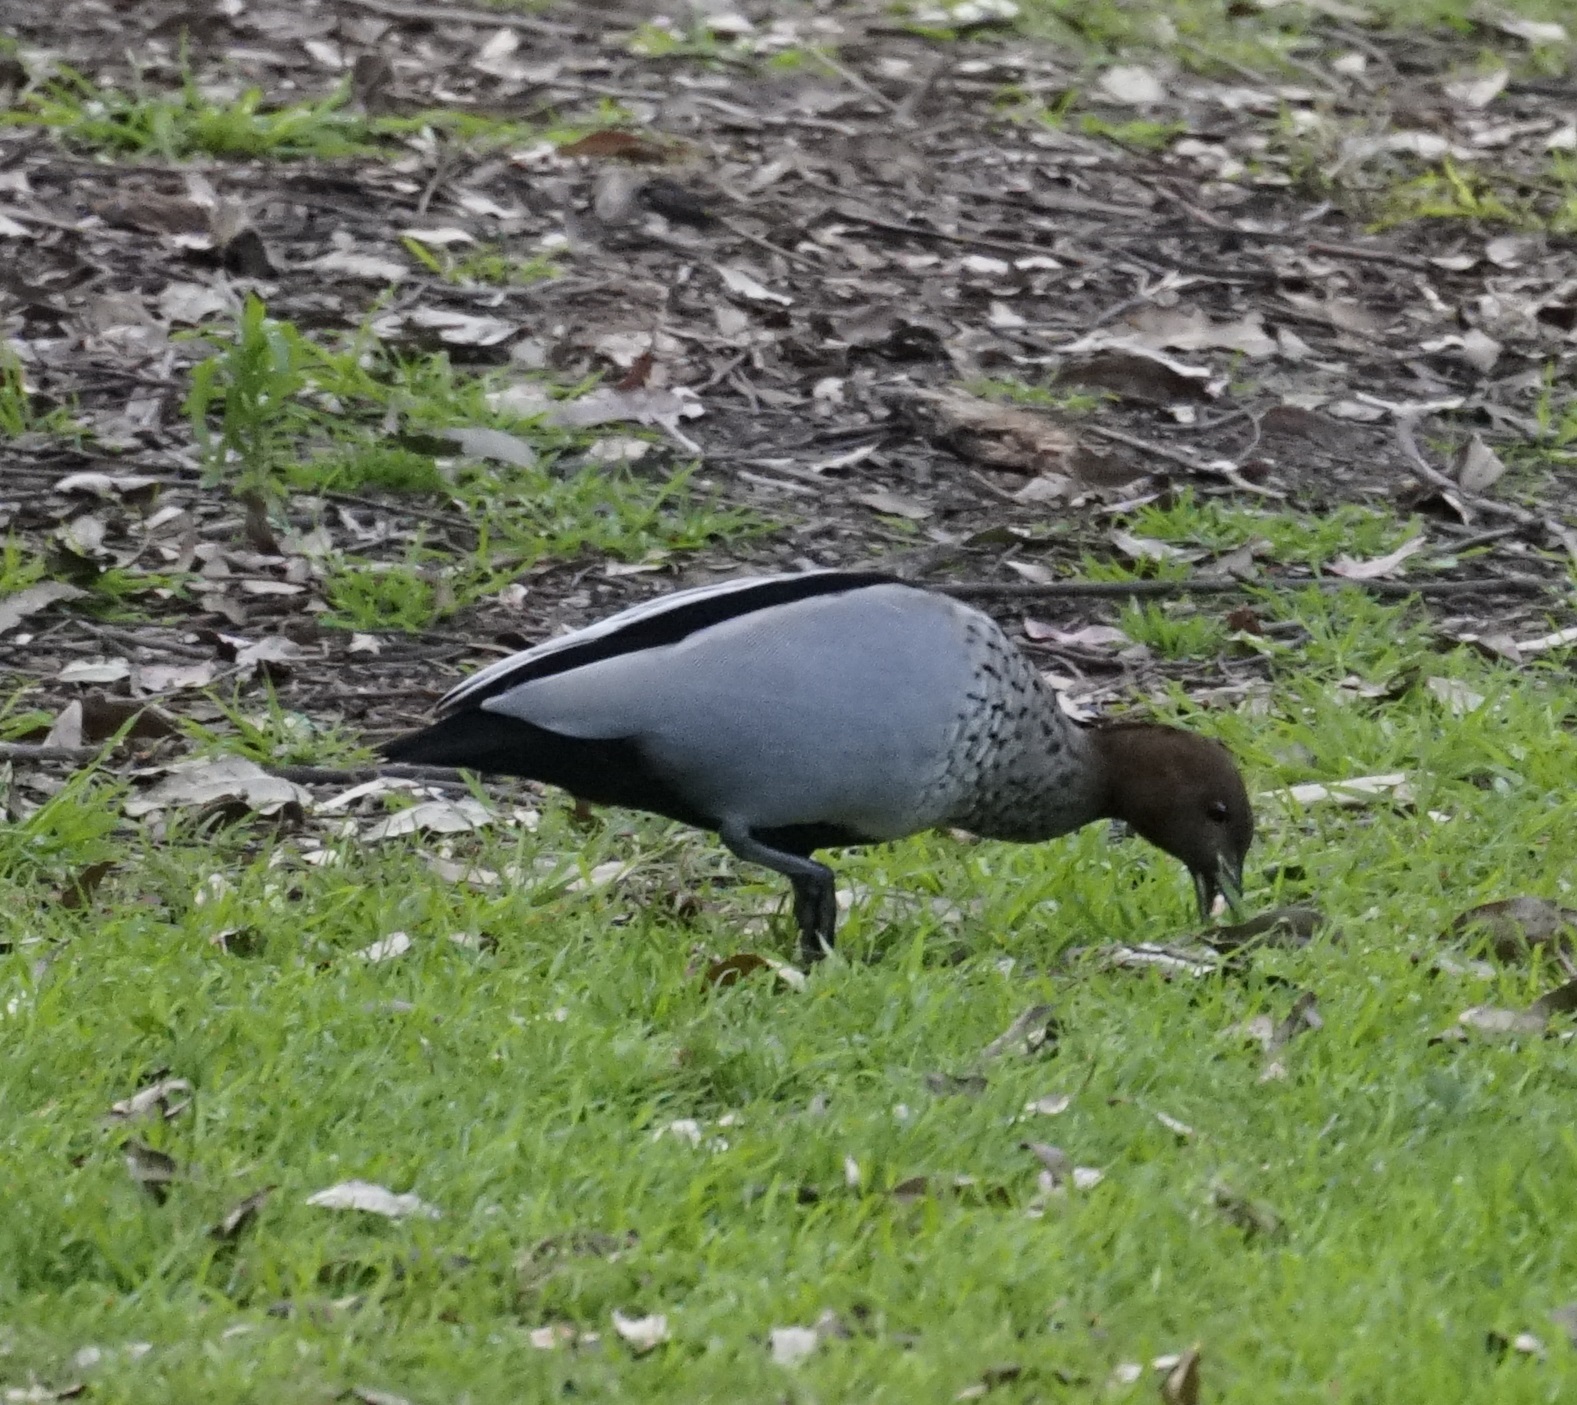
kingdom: Animalia
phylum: Chordata
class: Aves
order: Anseriformes
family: Anatidae
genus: Chenonetta
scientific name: Chenonetta jubata
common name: Maned duck
